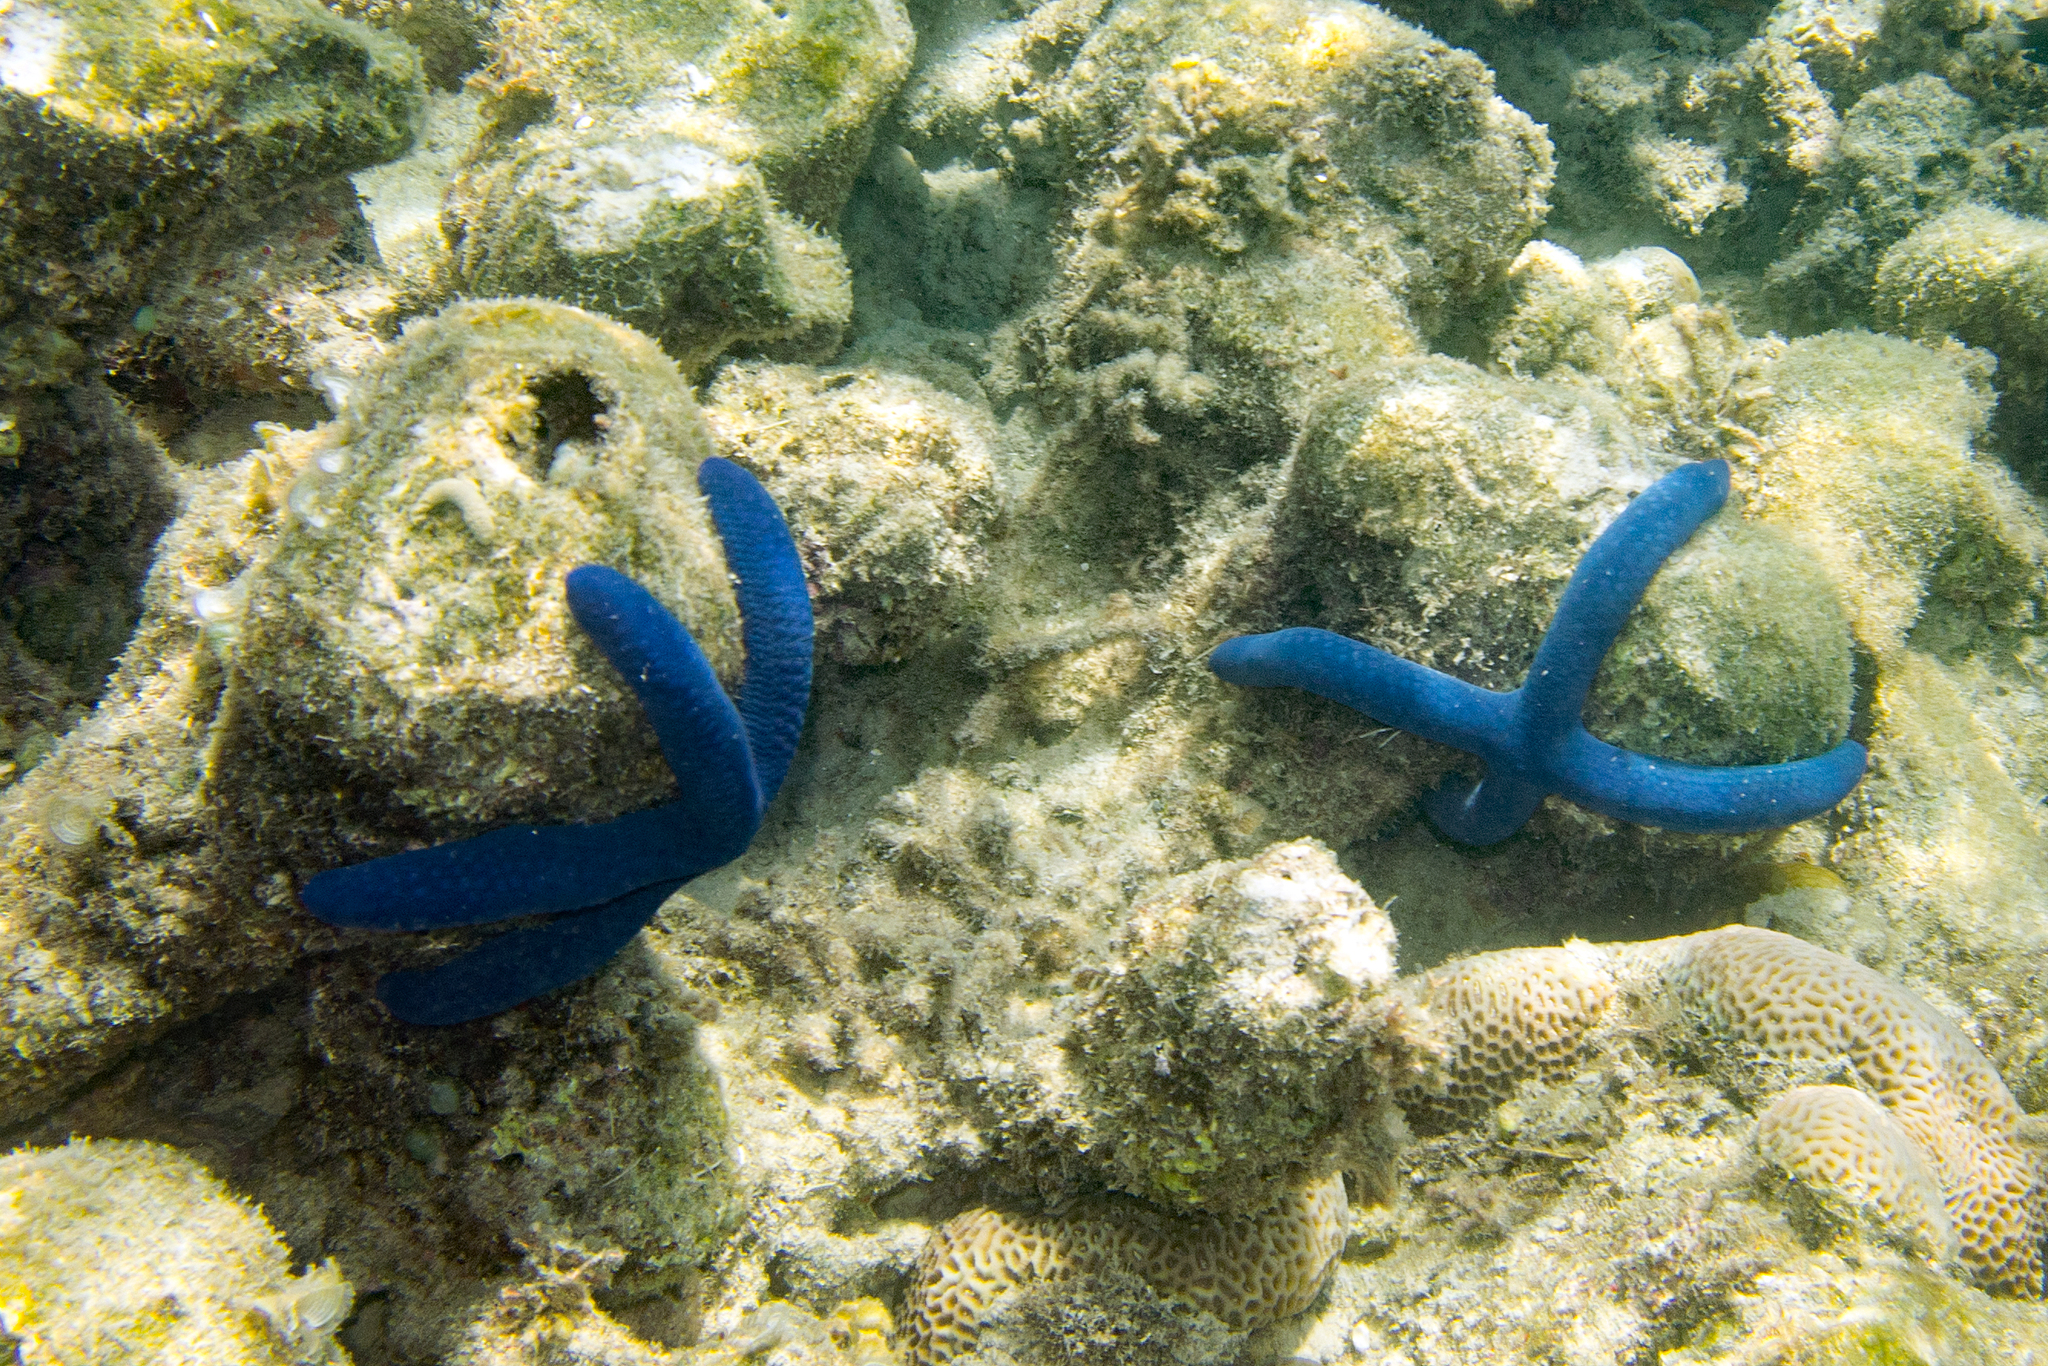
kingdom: Animalia
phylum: Echinodermata
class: Asteroidea
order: Valvatida
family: Ophidiasteridae
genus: Linckia
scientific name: Linckia laevigata
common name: Azure sea star
